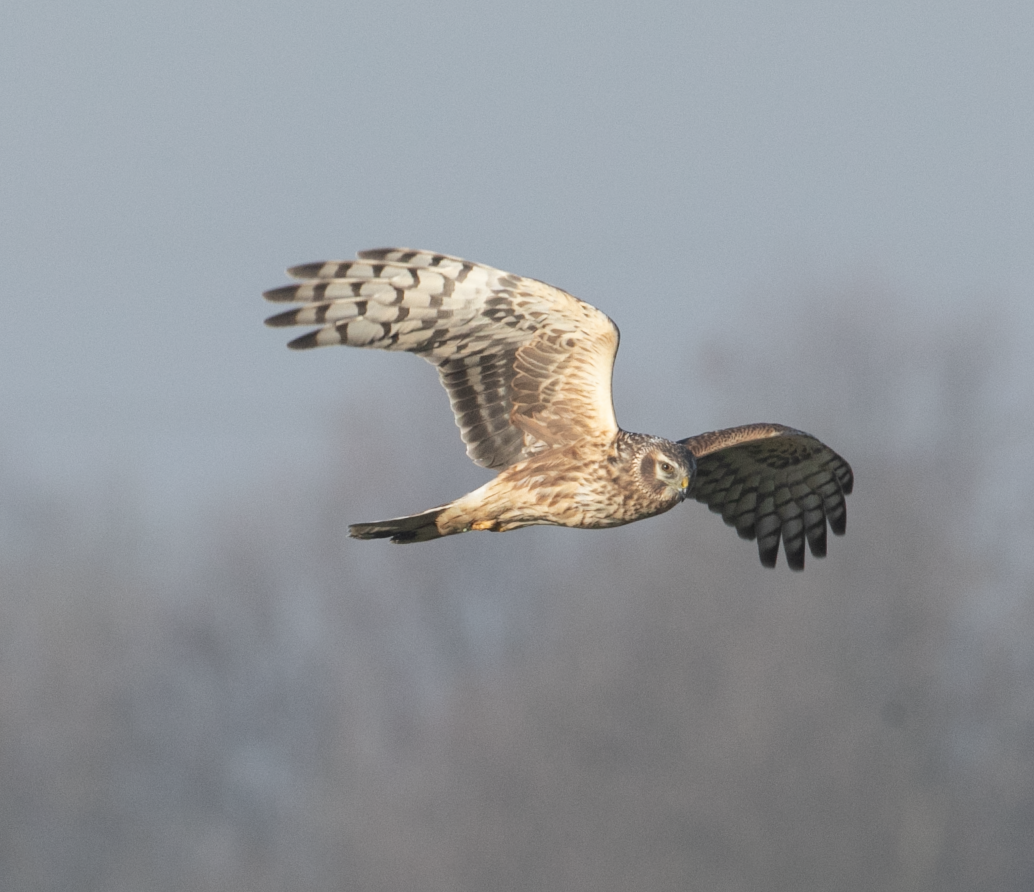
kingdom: Animalia
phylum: Chordata
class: Aves
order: Accipitriformes
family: Accipitridae
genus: Circus
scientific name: Circus cyaneus
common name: Hen harrier
